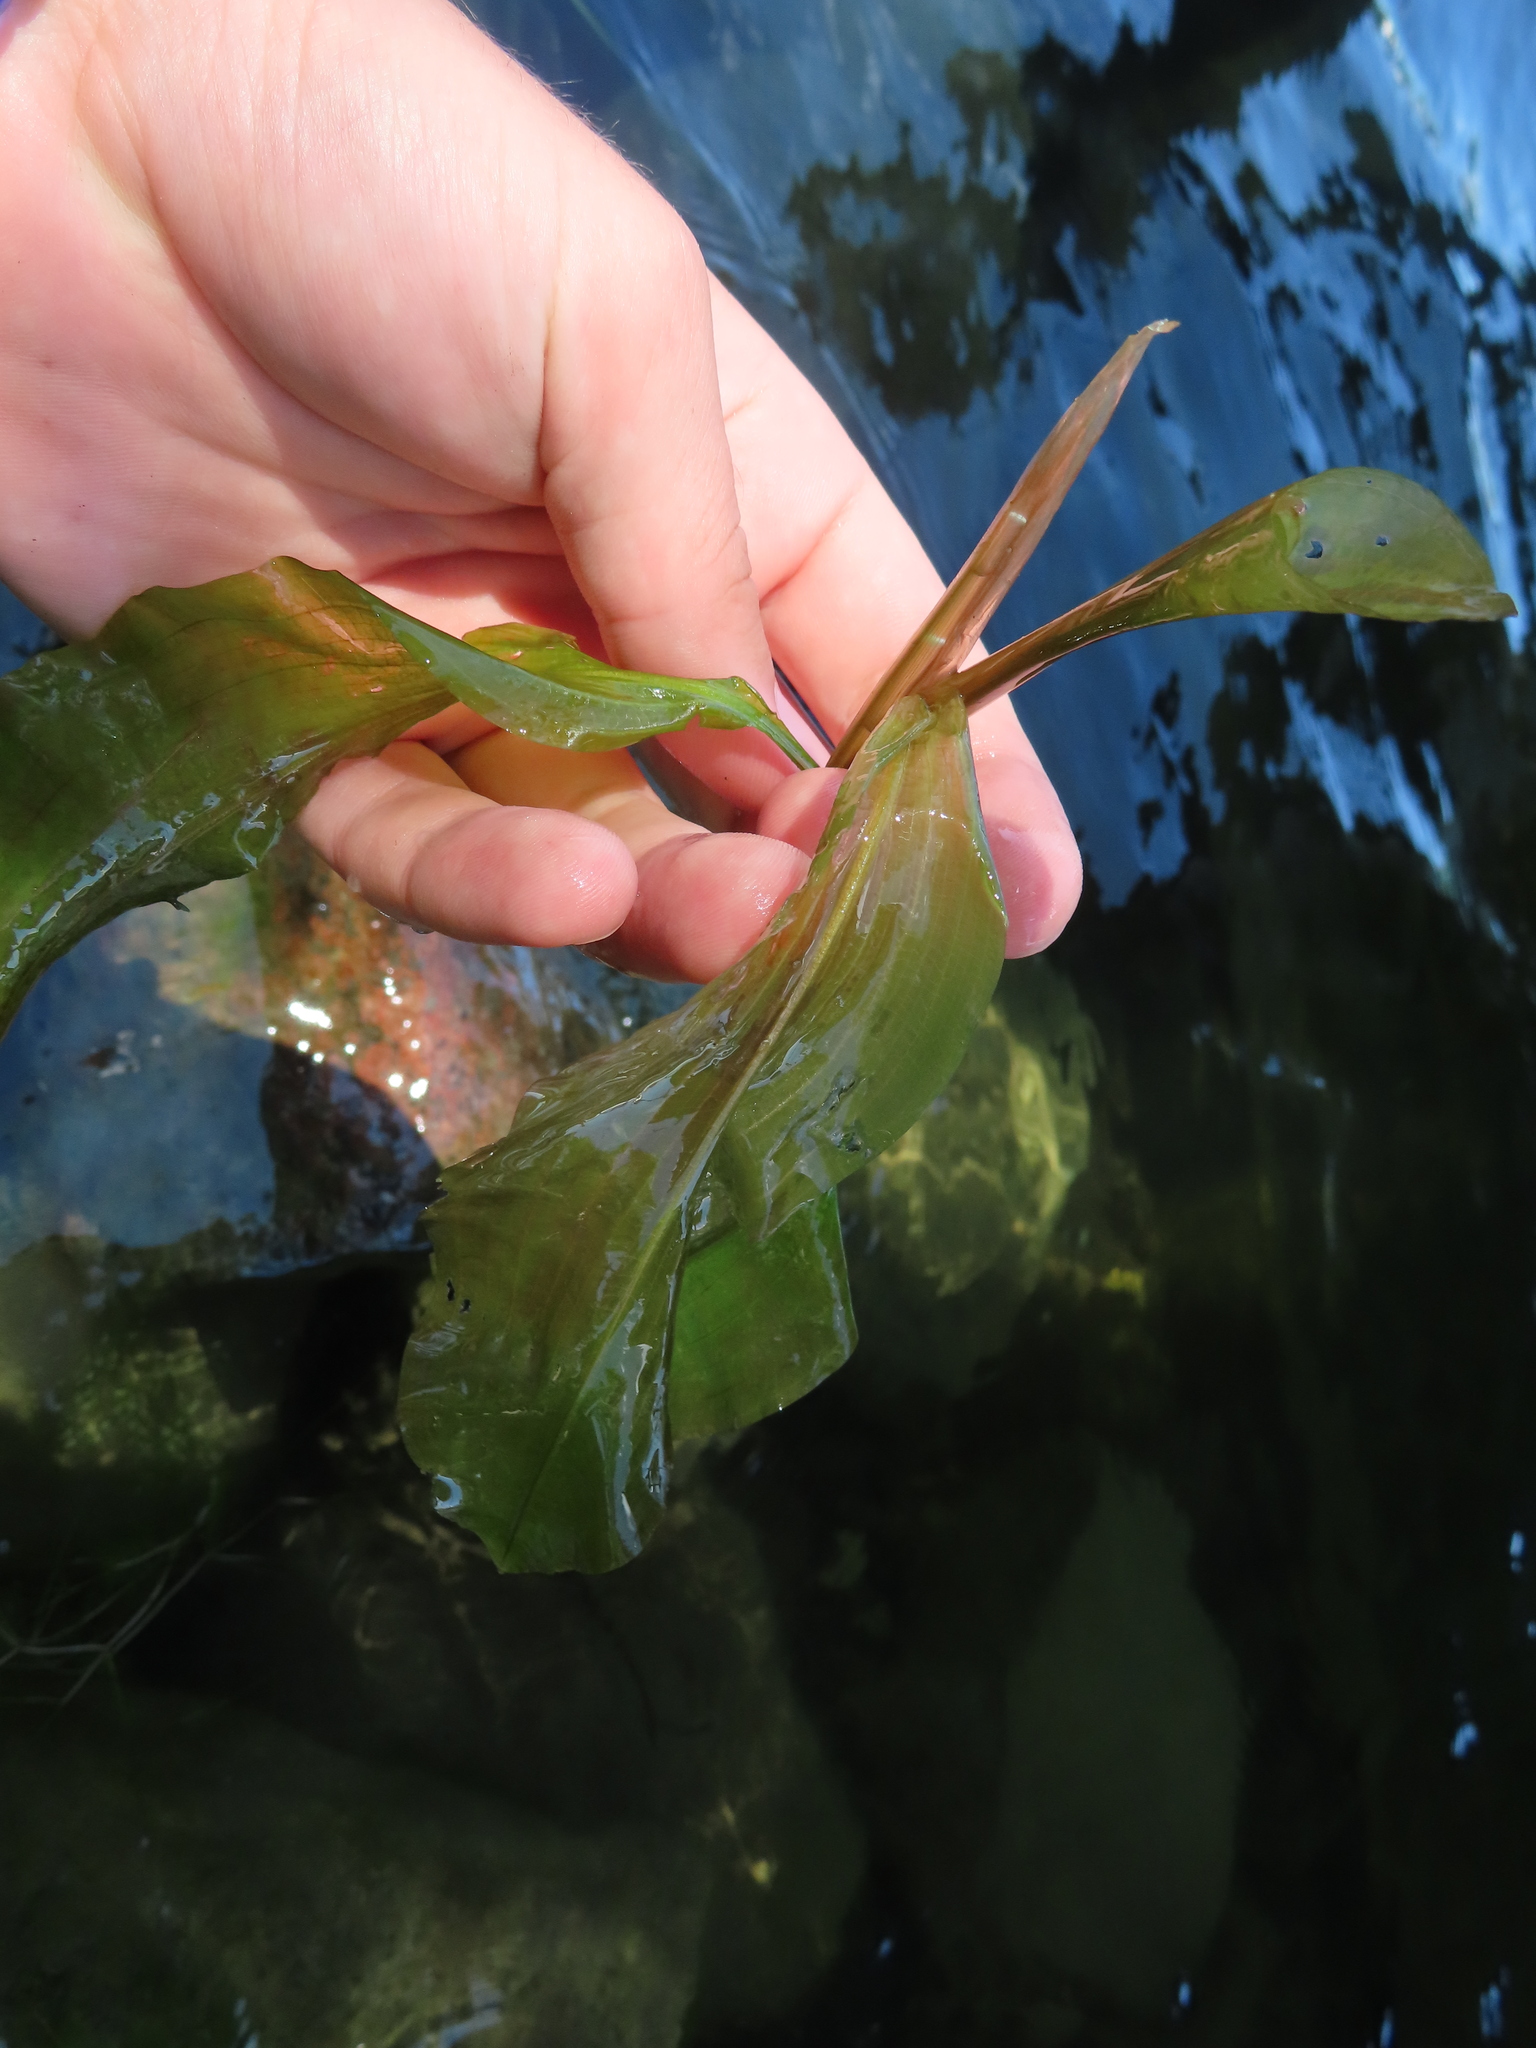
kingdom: Plantae
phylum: Tracheophyta
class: Liliopsida
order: Alismatales
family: Potamogetonaceae
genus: Potamogeton
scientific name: Potamogeton amplifolius
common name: Broad-leaved pondweed
